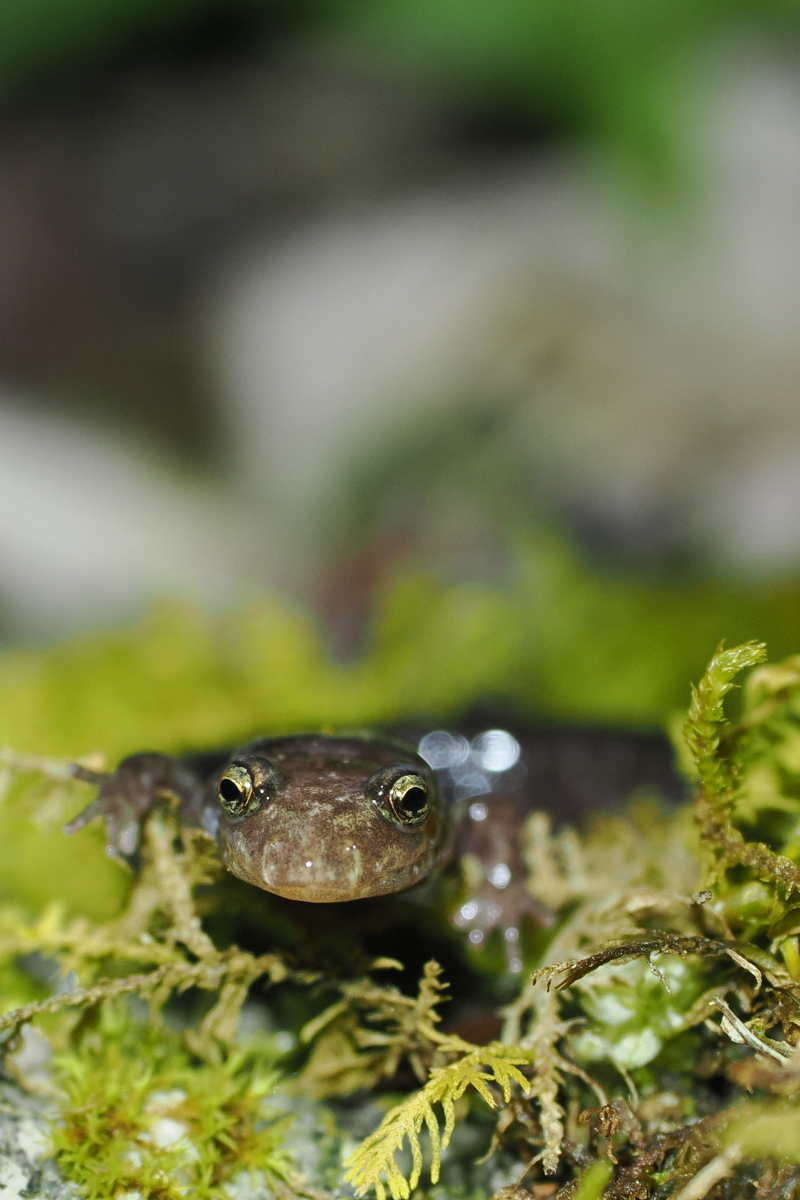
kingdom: Animalia
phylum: Chordata
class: Amphibia
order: Caudata
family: Plethodontidae
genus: Desmognathus
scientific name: Desmognathus orestes
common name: Blue ridge dusky salamander
